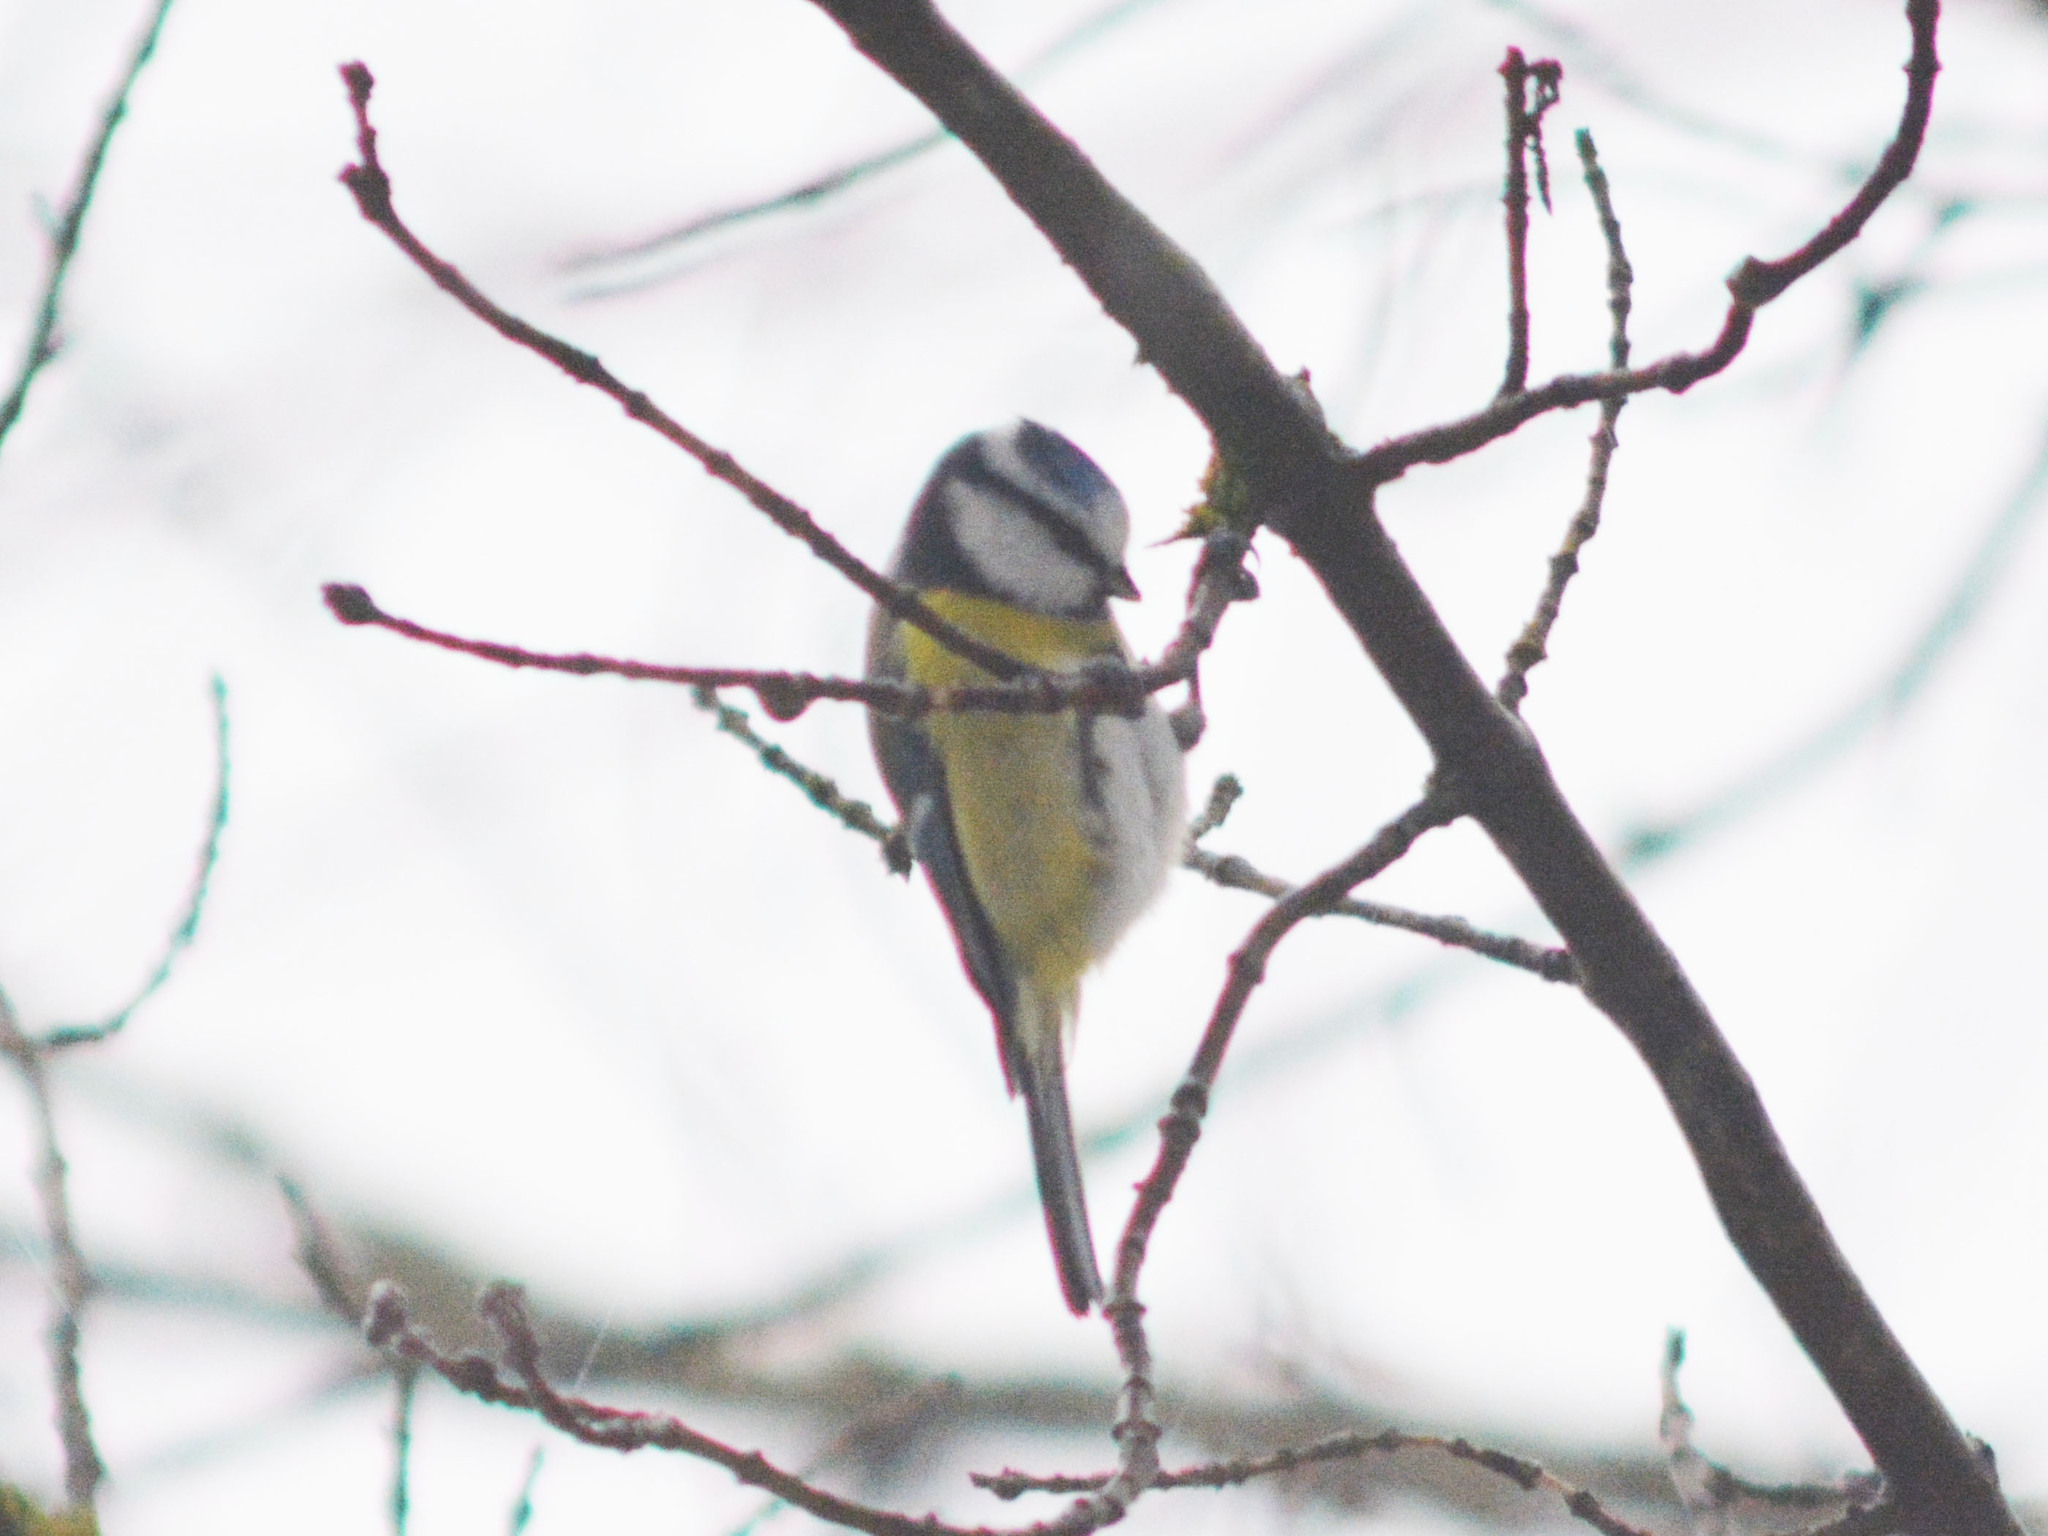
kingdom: Animalia
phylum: Chordata
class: Aves
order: Passeriformes
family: Paridae
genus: Cyanistes
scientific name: Cyanistes caeruleus
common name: Eurasian blue tit
